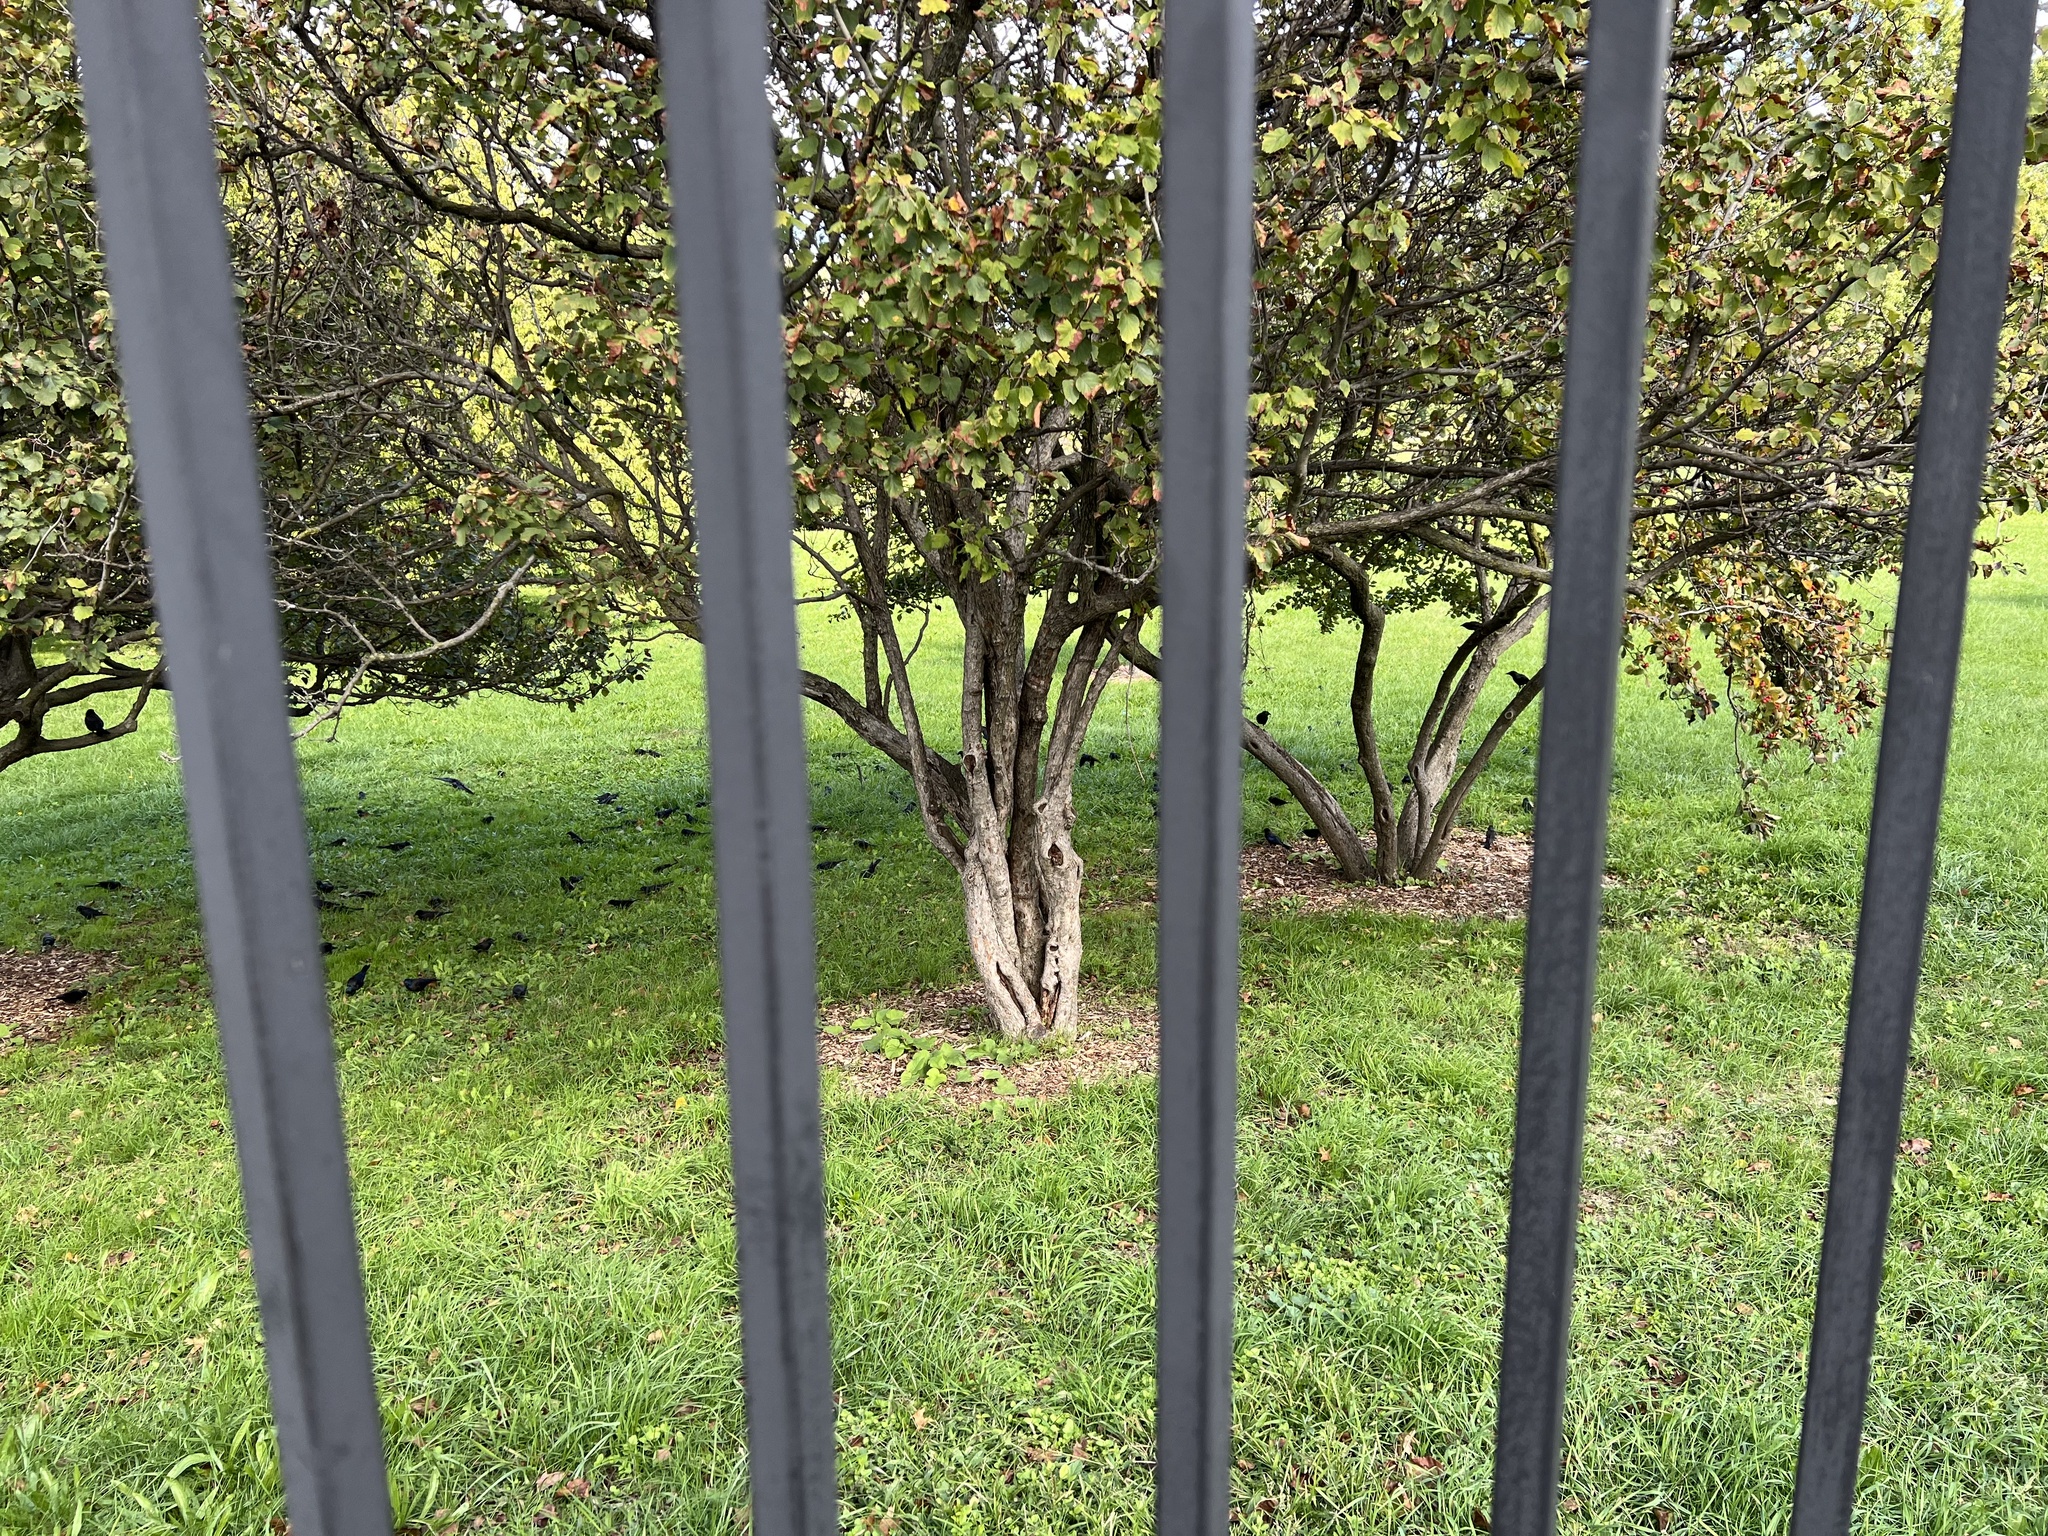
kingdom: Animalia
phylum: Chordata
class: Aves
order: Passeriformes
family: Icteridae
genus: Quiscalus
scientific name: Quiscalus quiscula
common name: Common grackle
